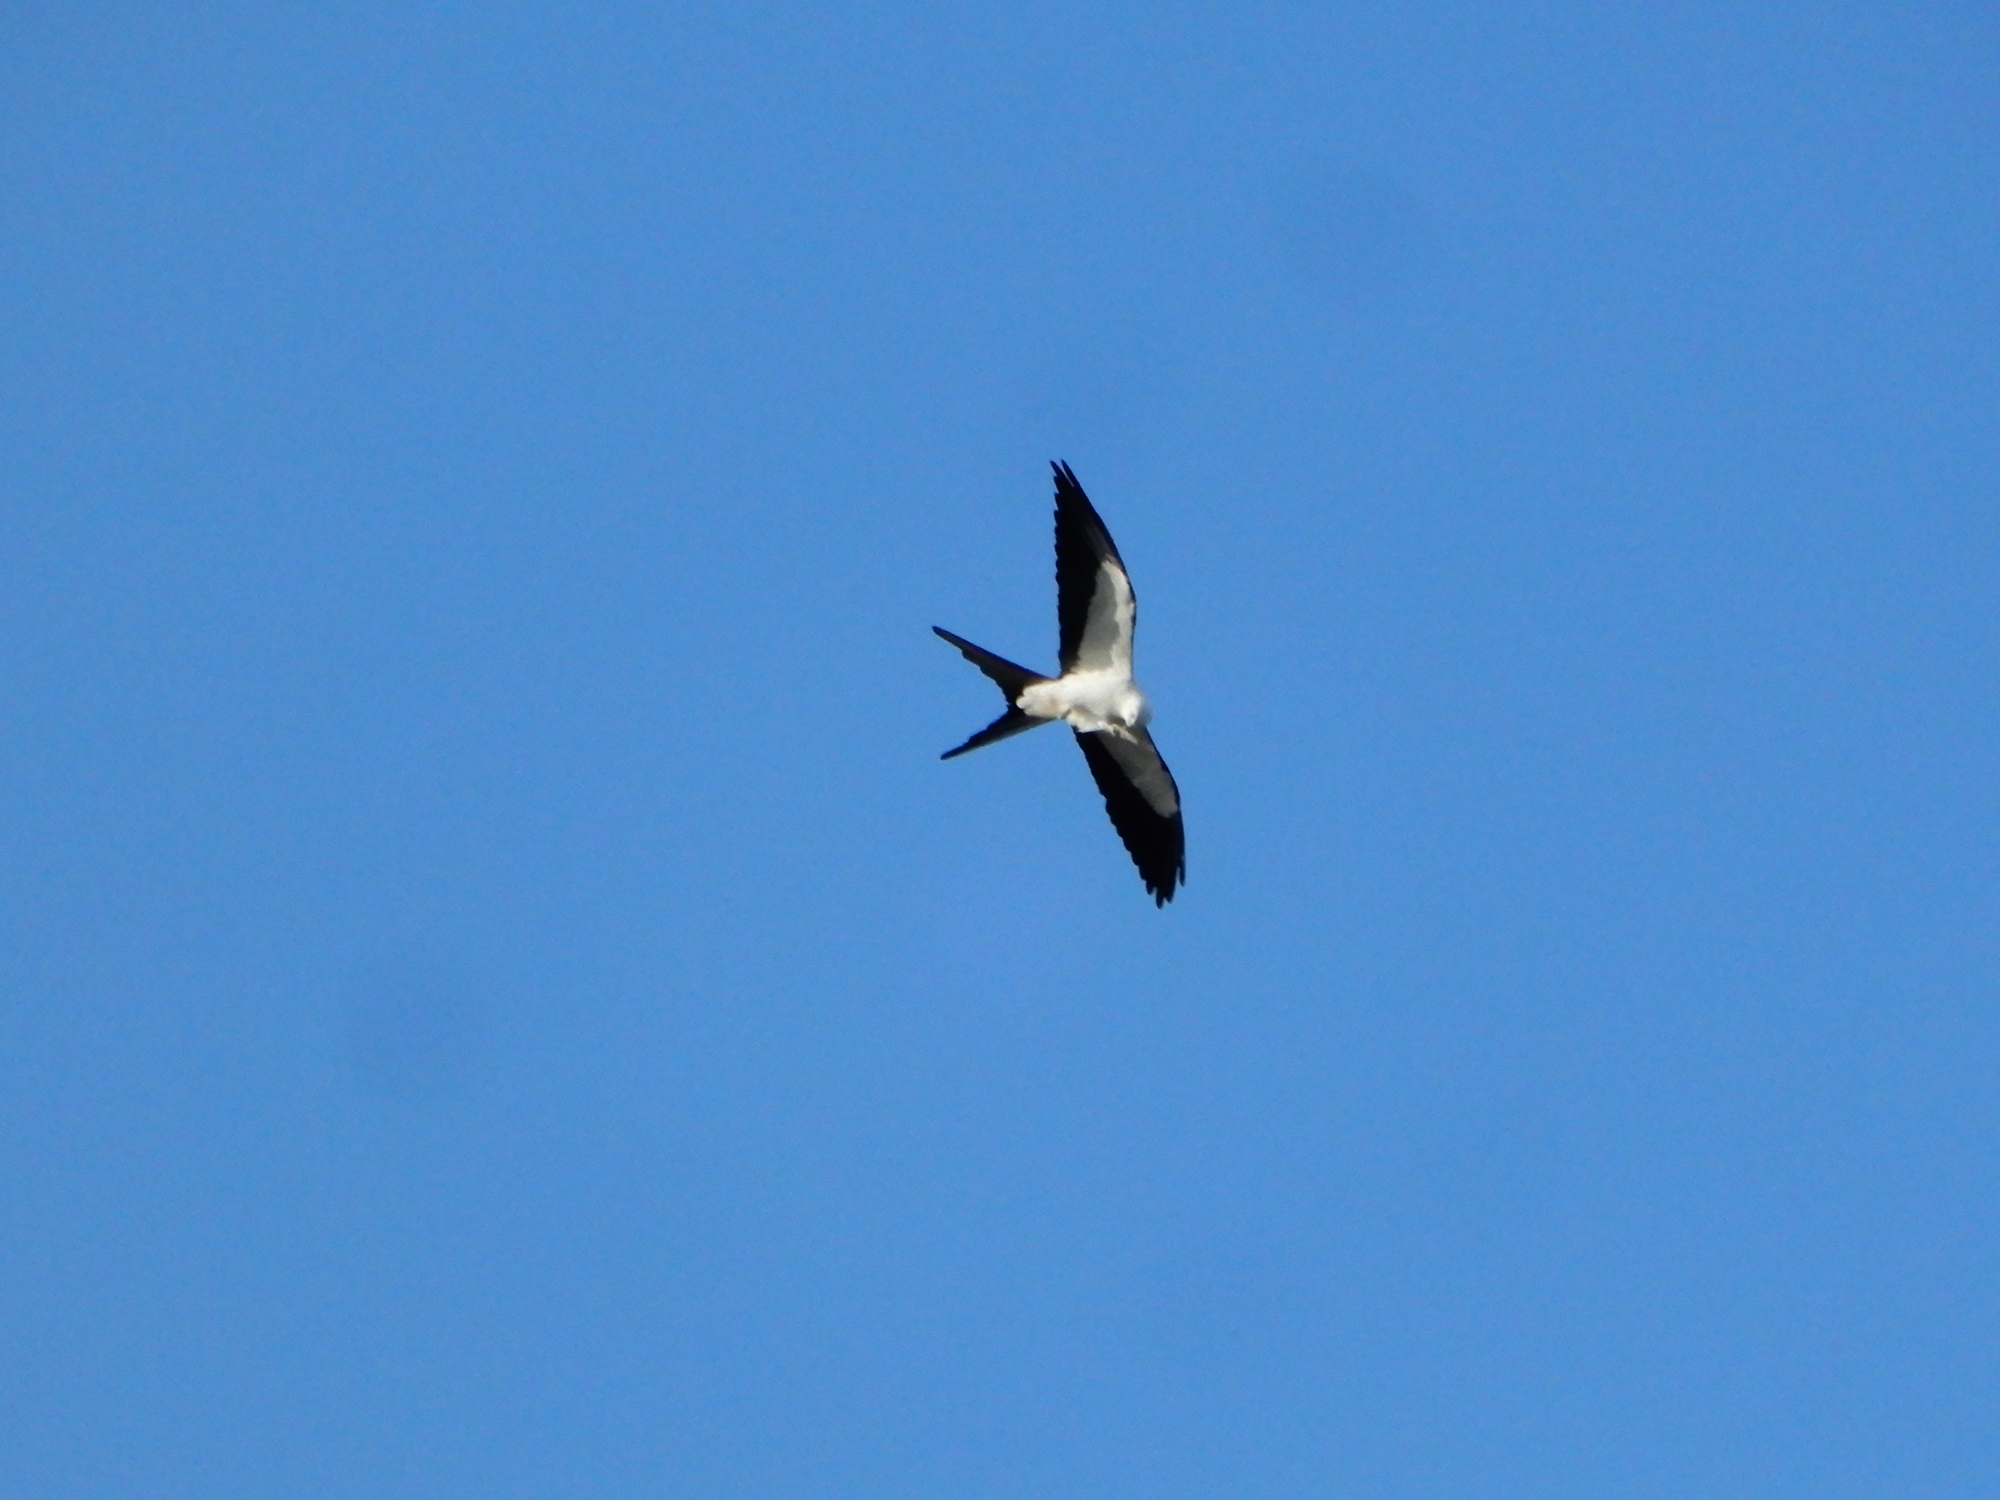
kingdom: Animalia
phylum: Chordata
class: Aves
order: Accipitriformes
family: Accipitridae
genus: Elanoides
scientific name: Elanoides forficatus
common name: Swallow-tailed kite
